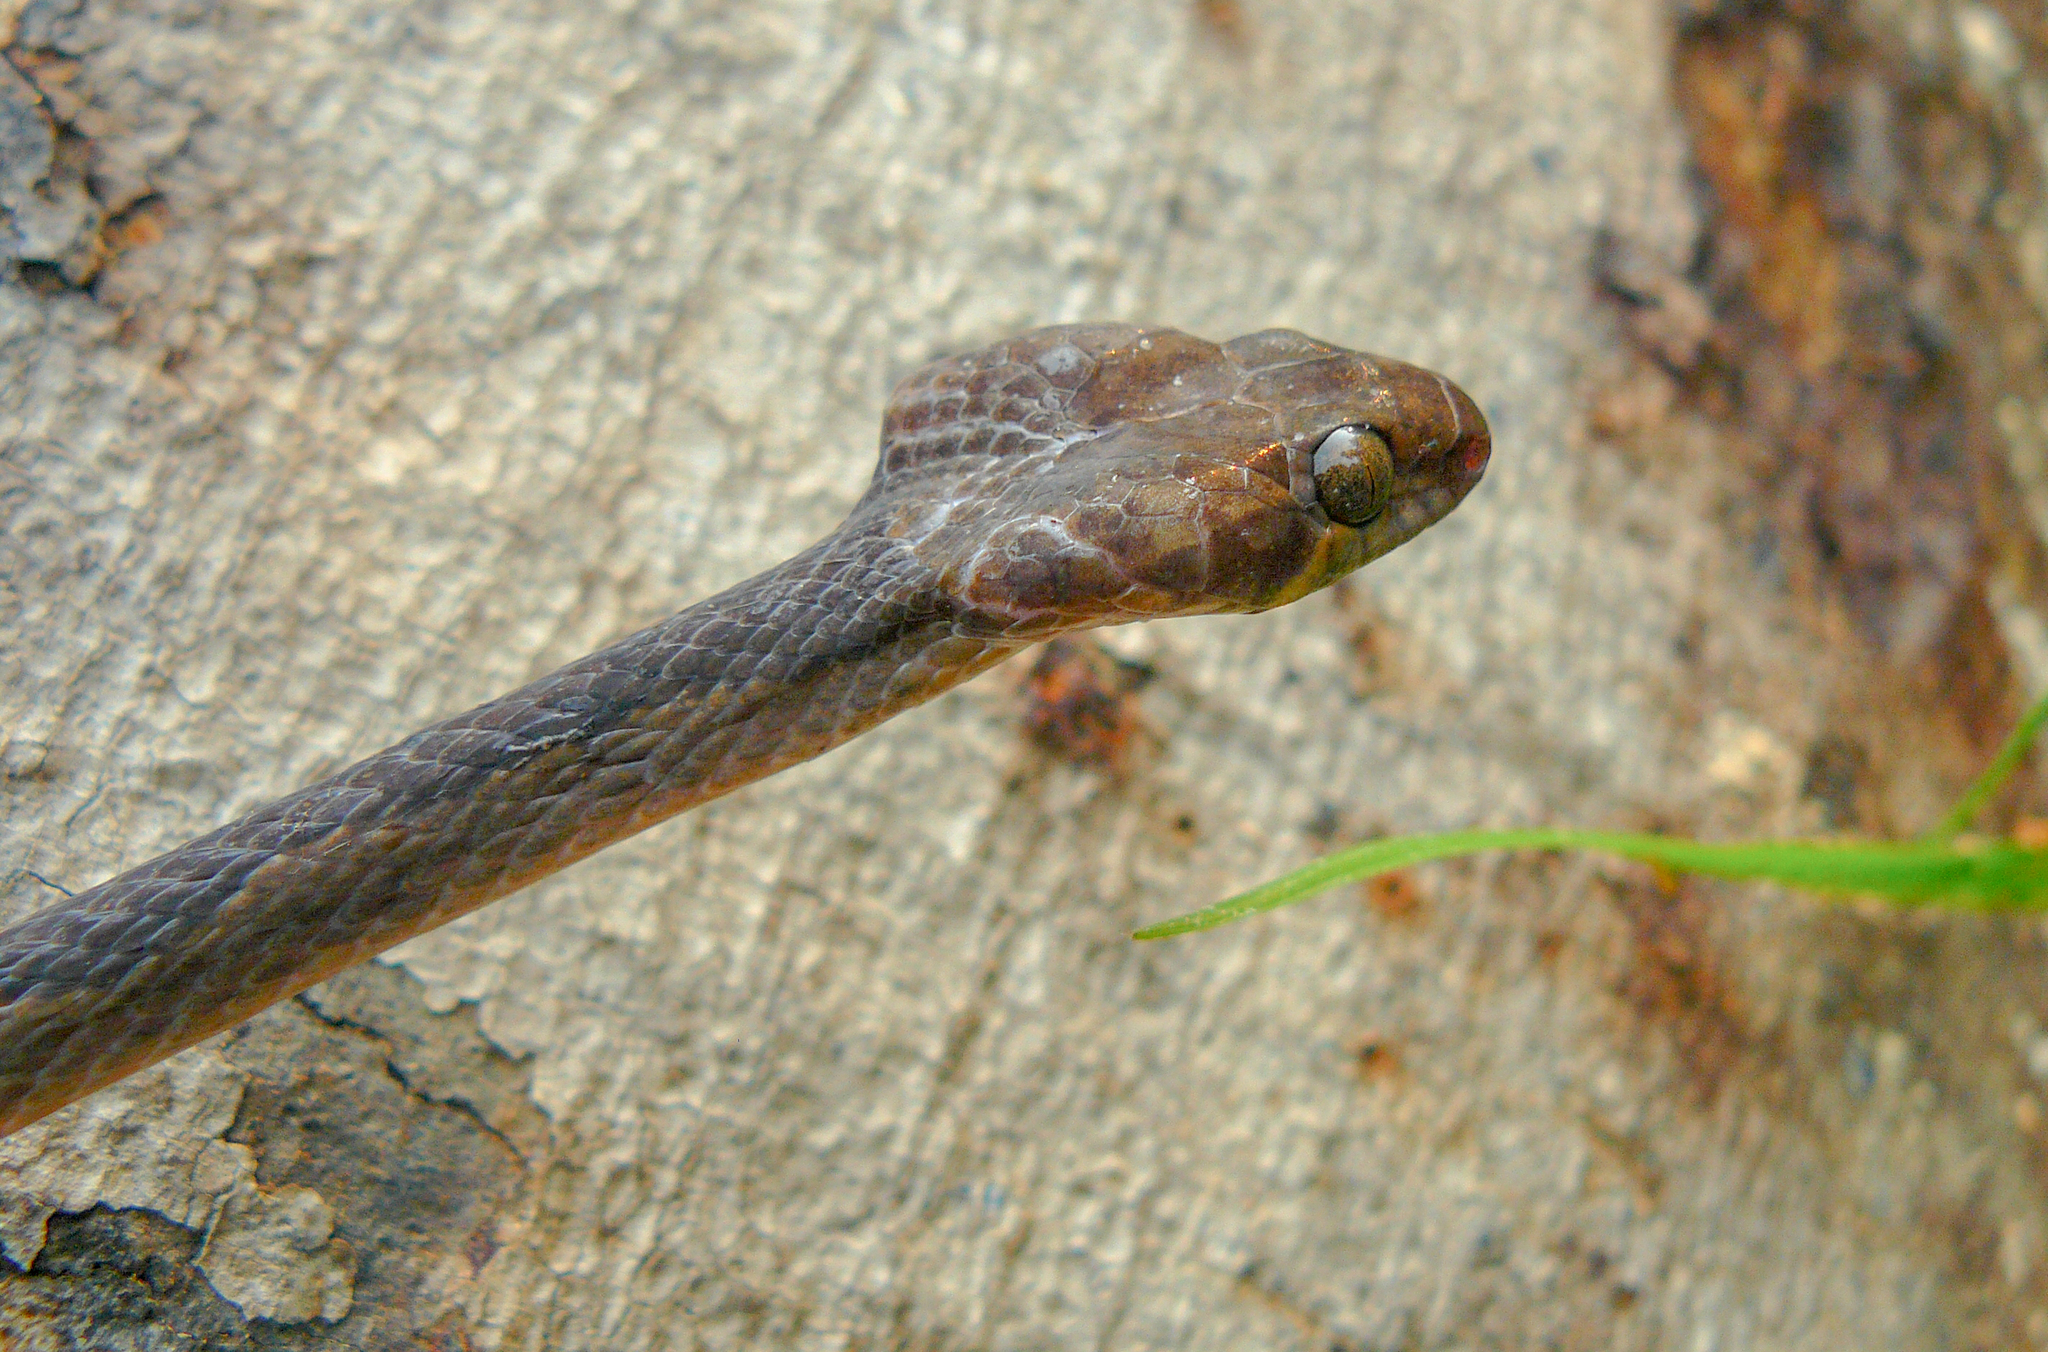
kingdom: Animalia
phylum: Chordata
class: Squamata
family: Colubridae
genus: Leptodeira
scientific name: Leptodeira annulata
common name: Banded cat-eyed snake
